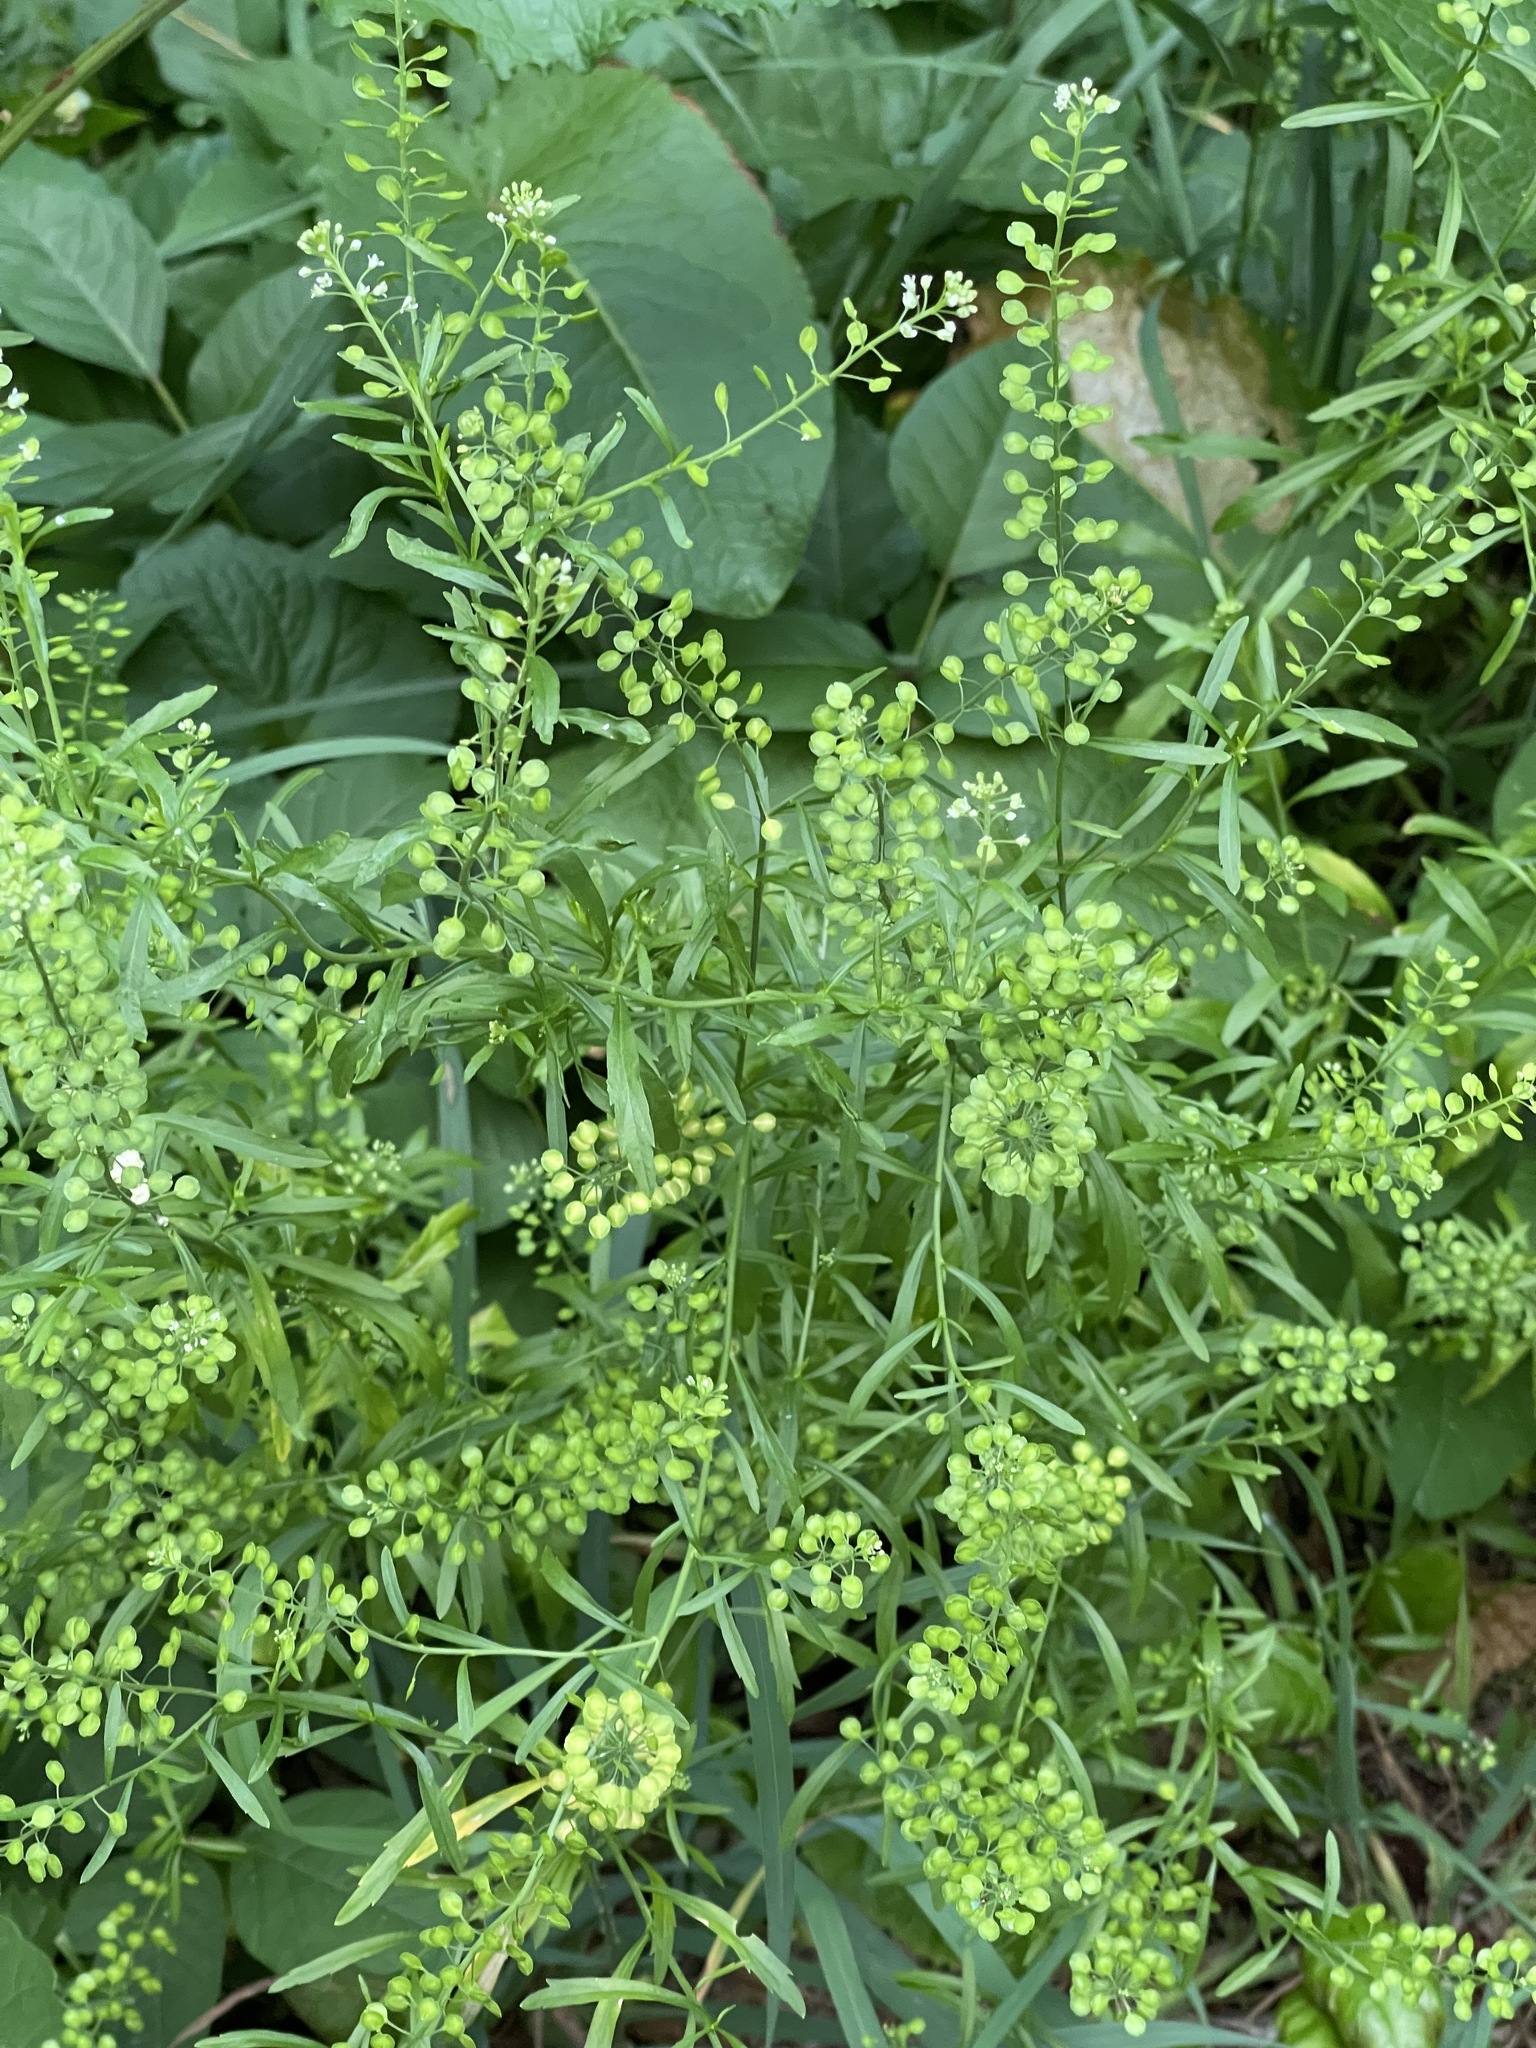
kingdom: Plantae
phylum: Tracheophyta
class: Magnoliopsida
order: Brassicales
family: Brassicaceae
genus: Lepidium
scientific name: Lepidium virginicum
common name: Least pepperwort
